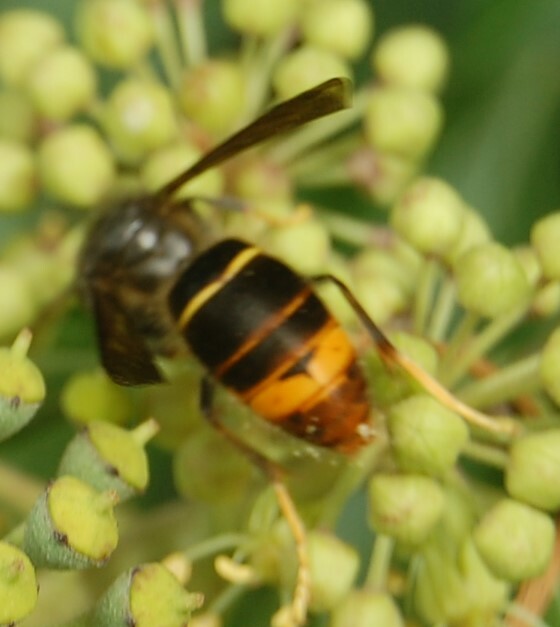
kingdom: Animalia
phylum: Arthropoda
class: Insecta
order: Hymenoptera
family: Vespidae
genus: Vespa
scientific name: Vespa velutina
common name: Asian hornet
